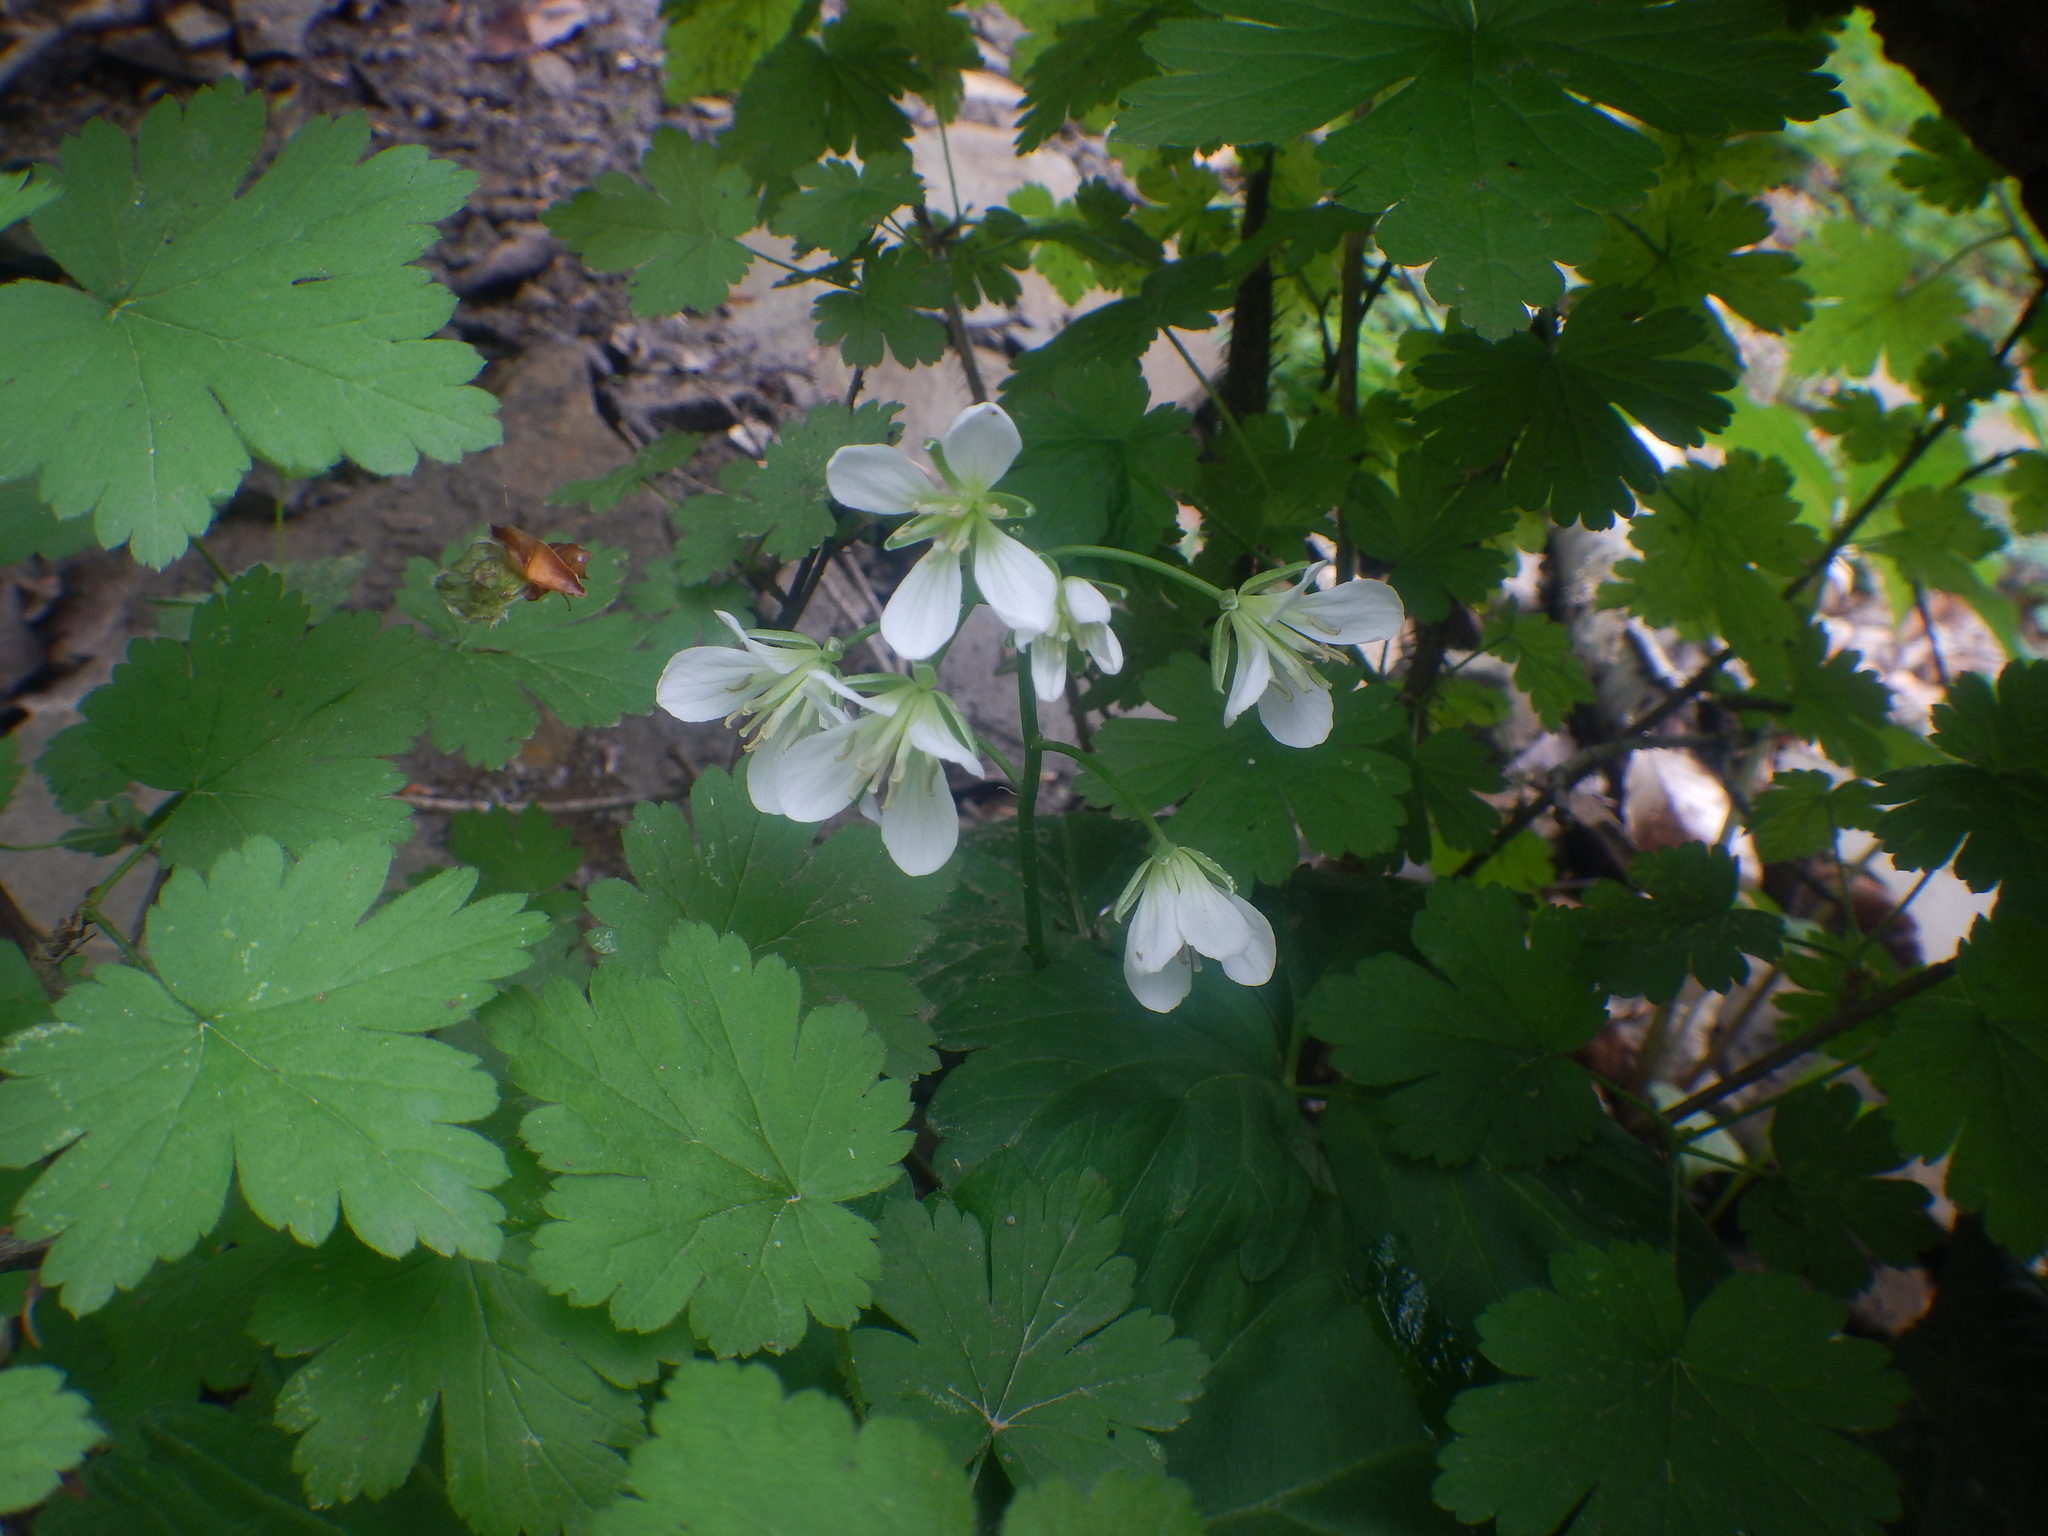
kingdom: Plantae
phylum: Tracheophyta
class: Magnoliopsida
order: Brassicales
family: Brassicaceae
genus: Cardamine
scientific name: Cardamine diphylla
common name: Broad-leaved toothwort
